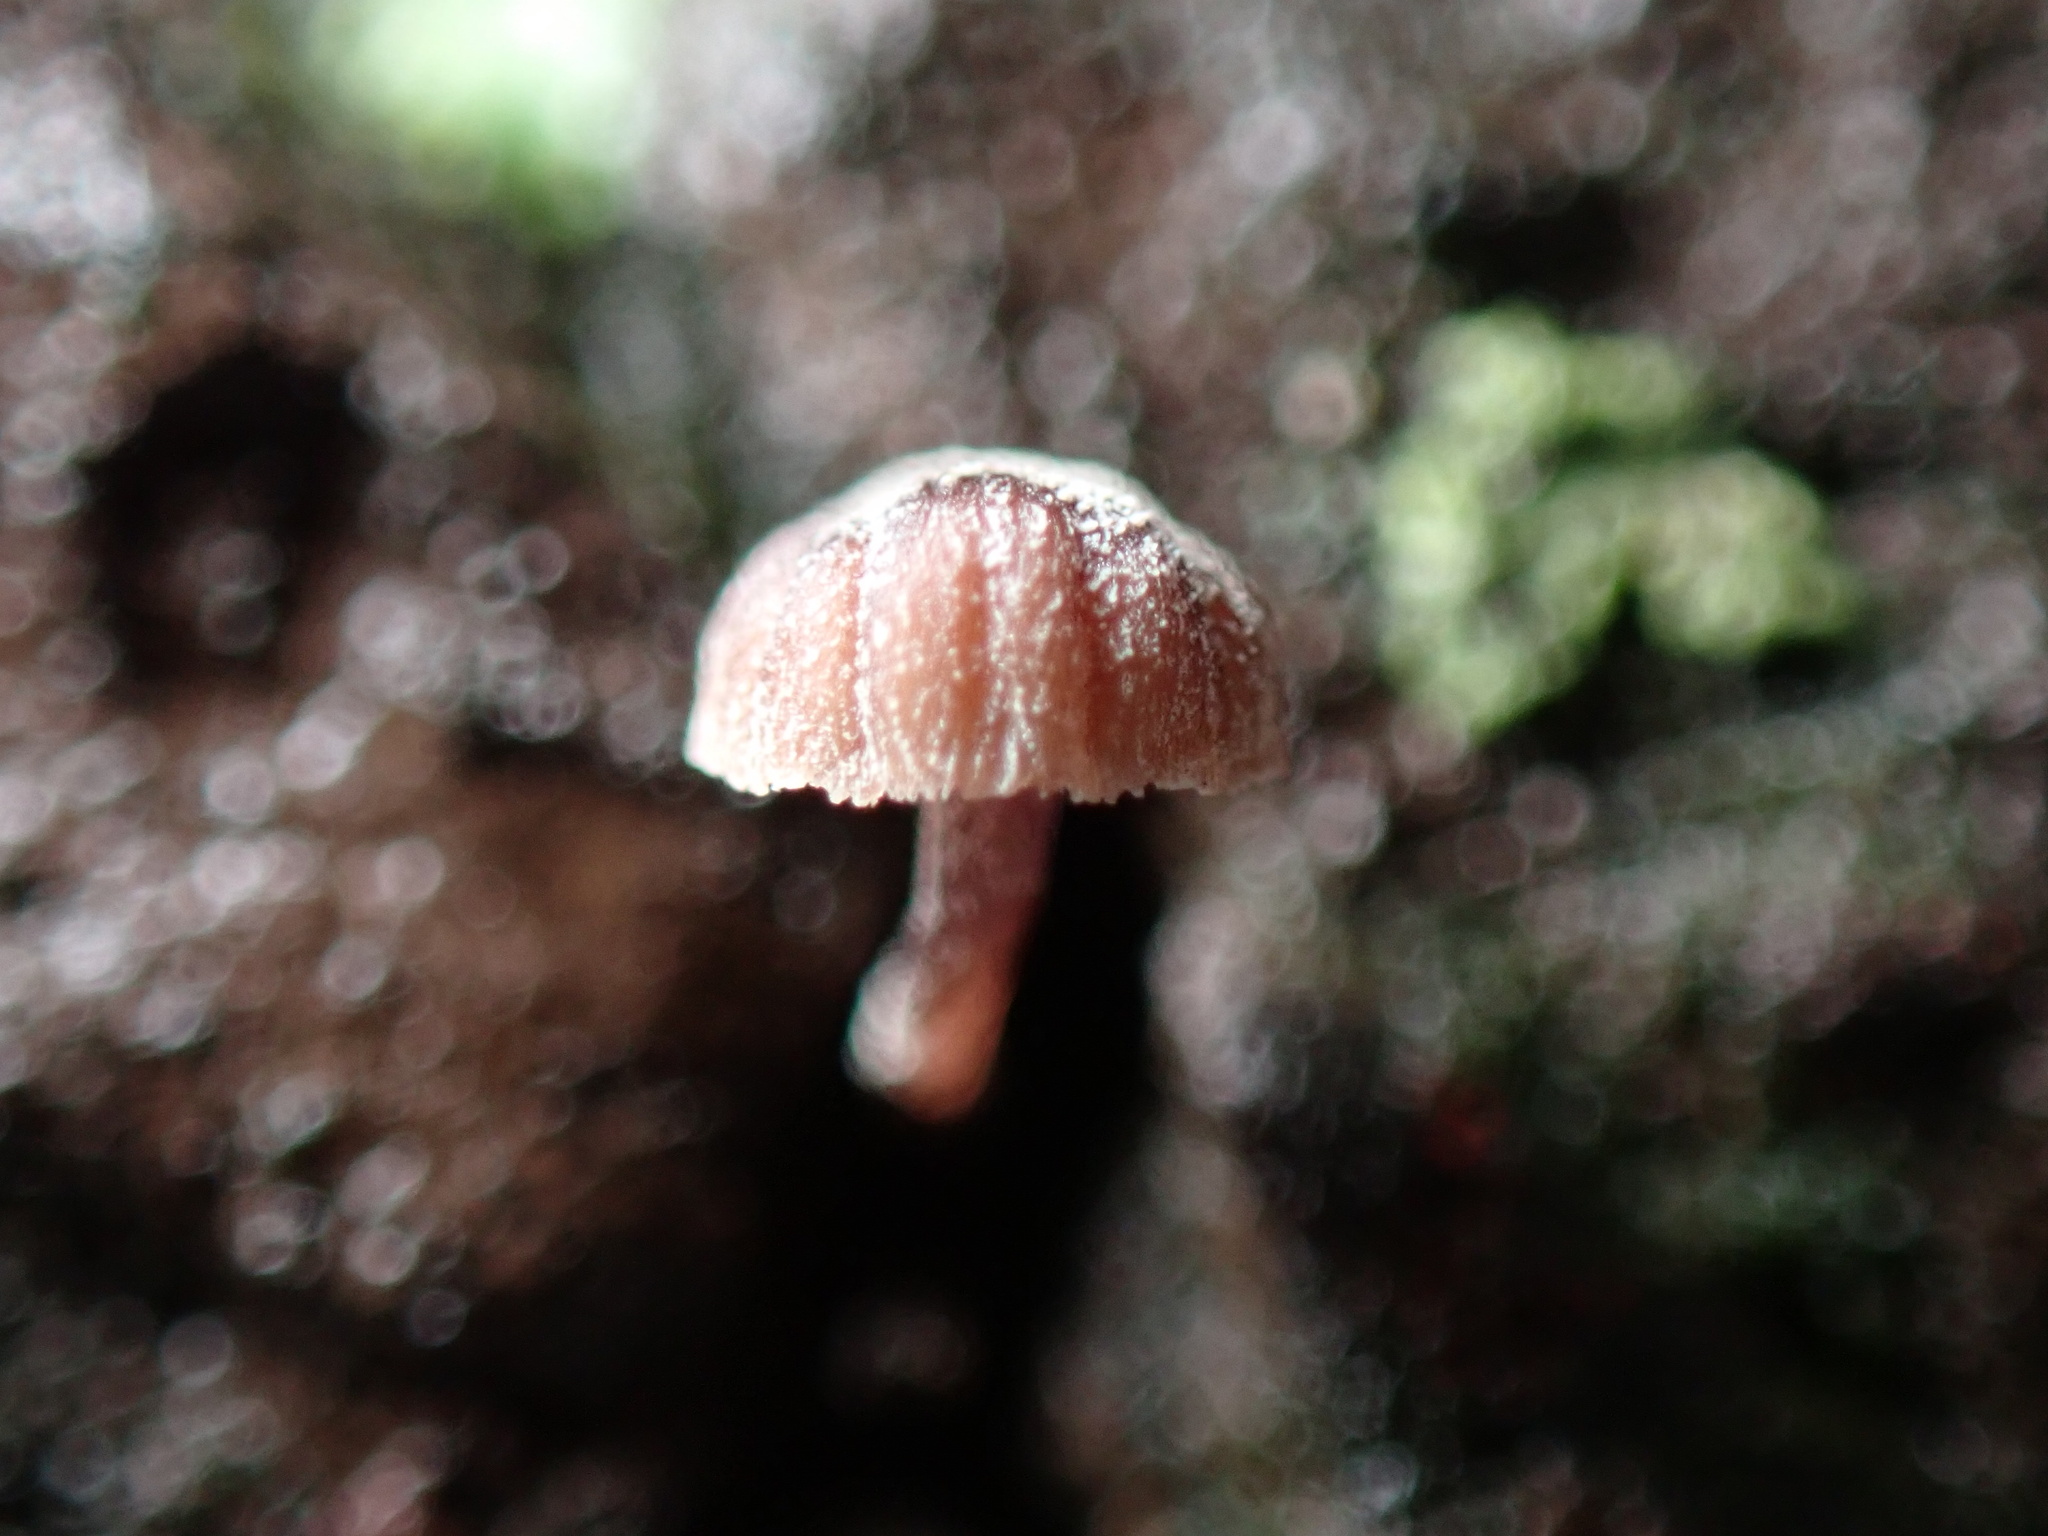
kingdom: Fungi
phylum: Basidiomycota
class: Agaricomycetes
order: Agaricales
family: Mycenaceae
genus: Mycena
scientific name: Mycena meliigena
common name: Mauve bonnet
